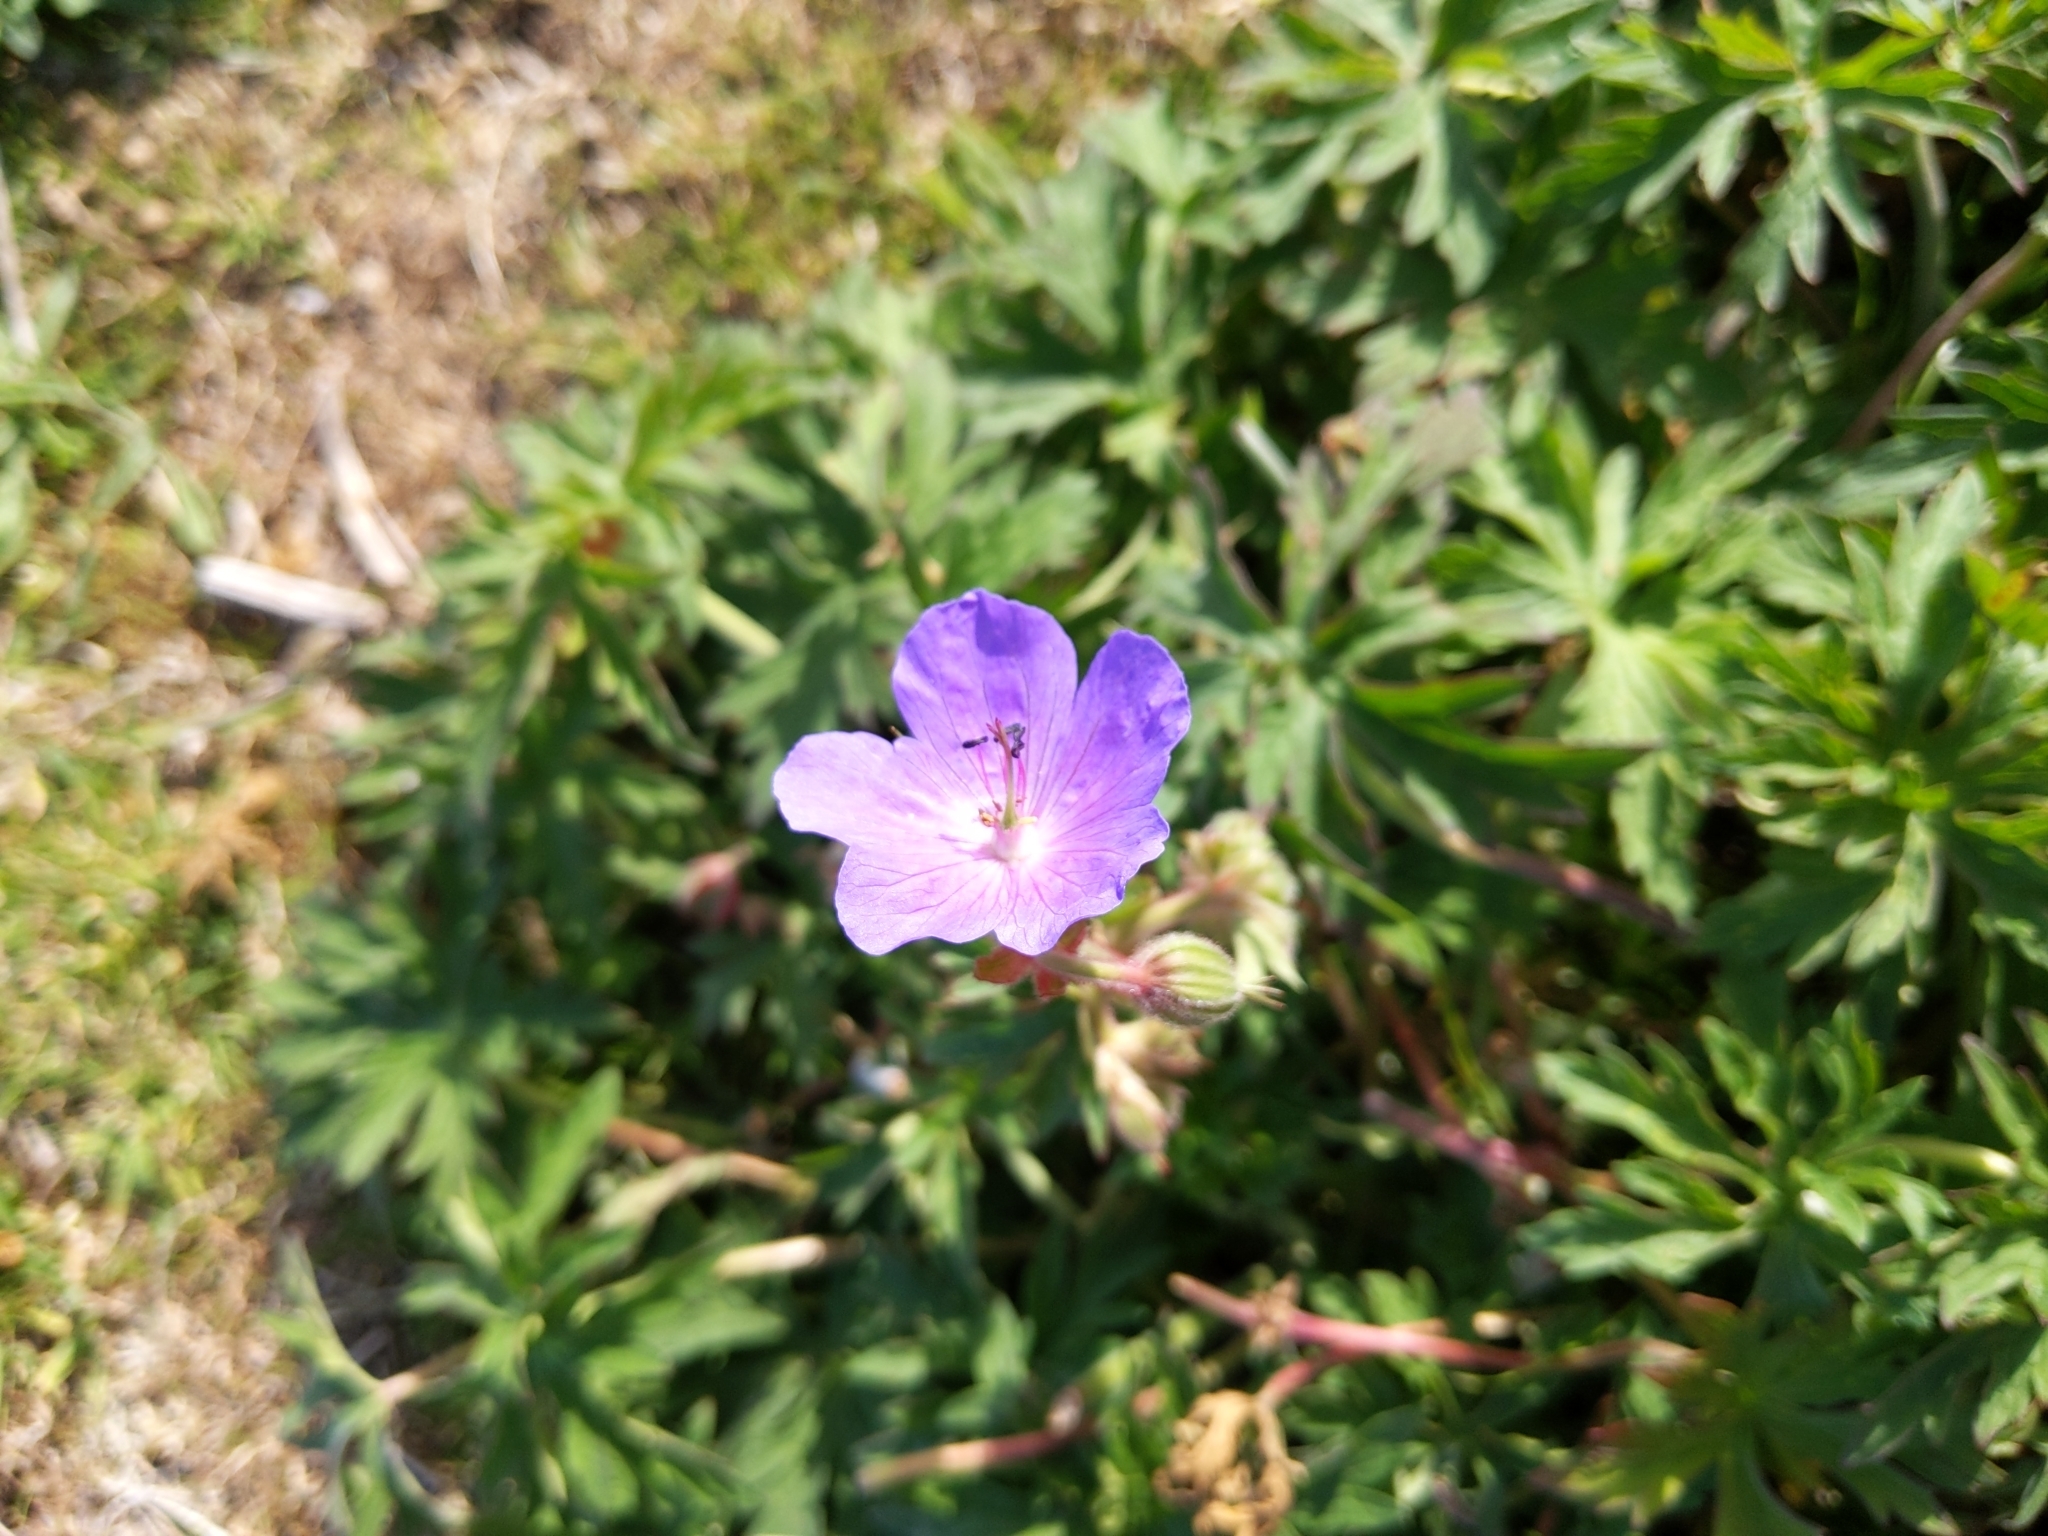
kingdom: Plantae
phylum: Tracheophyta
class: Magnoliopsida
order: Geraniales
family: Geraniaceae
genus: Geranium
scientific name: Geranium pratense
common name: Meadow crane's-bill
